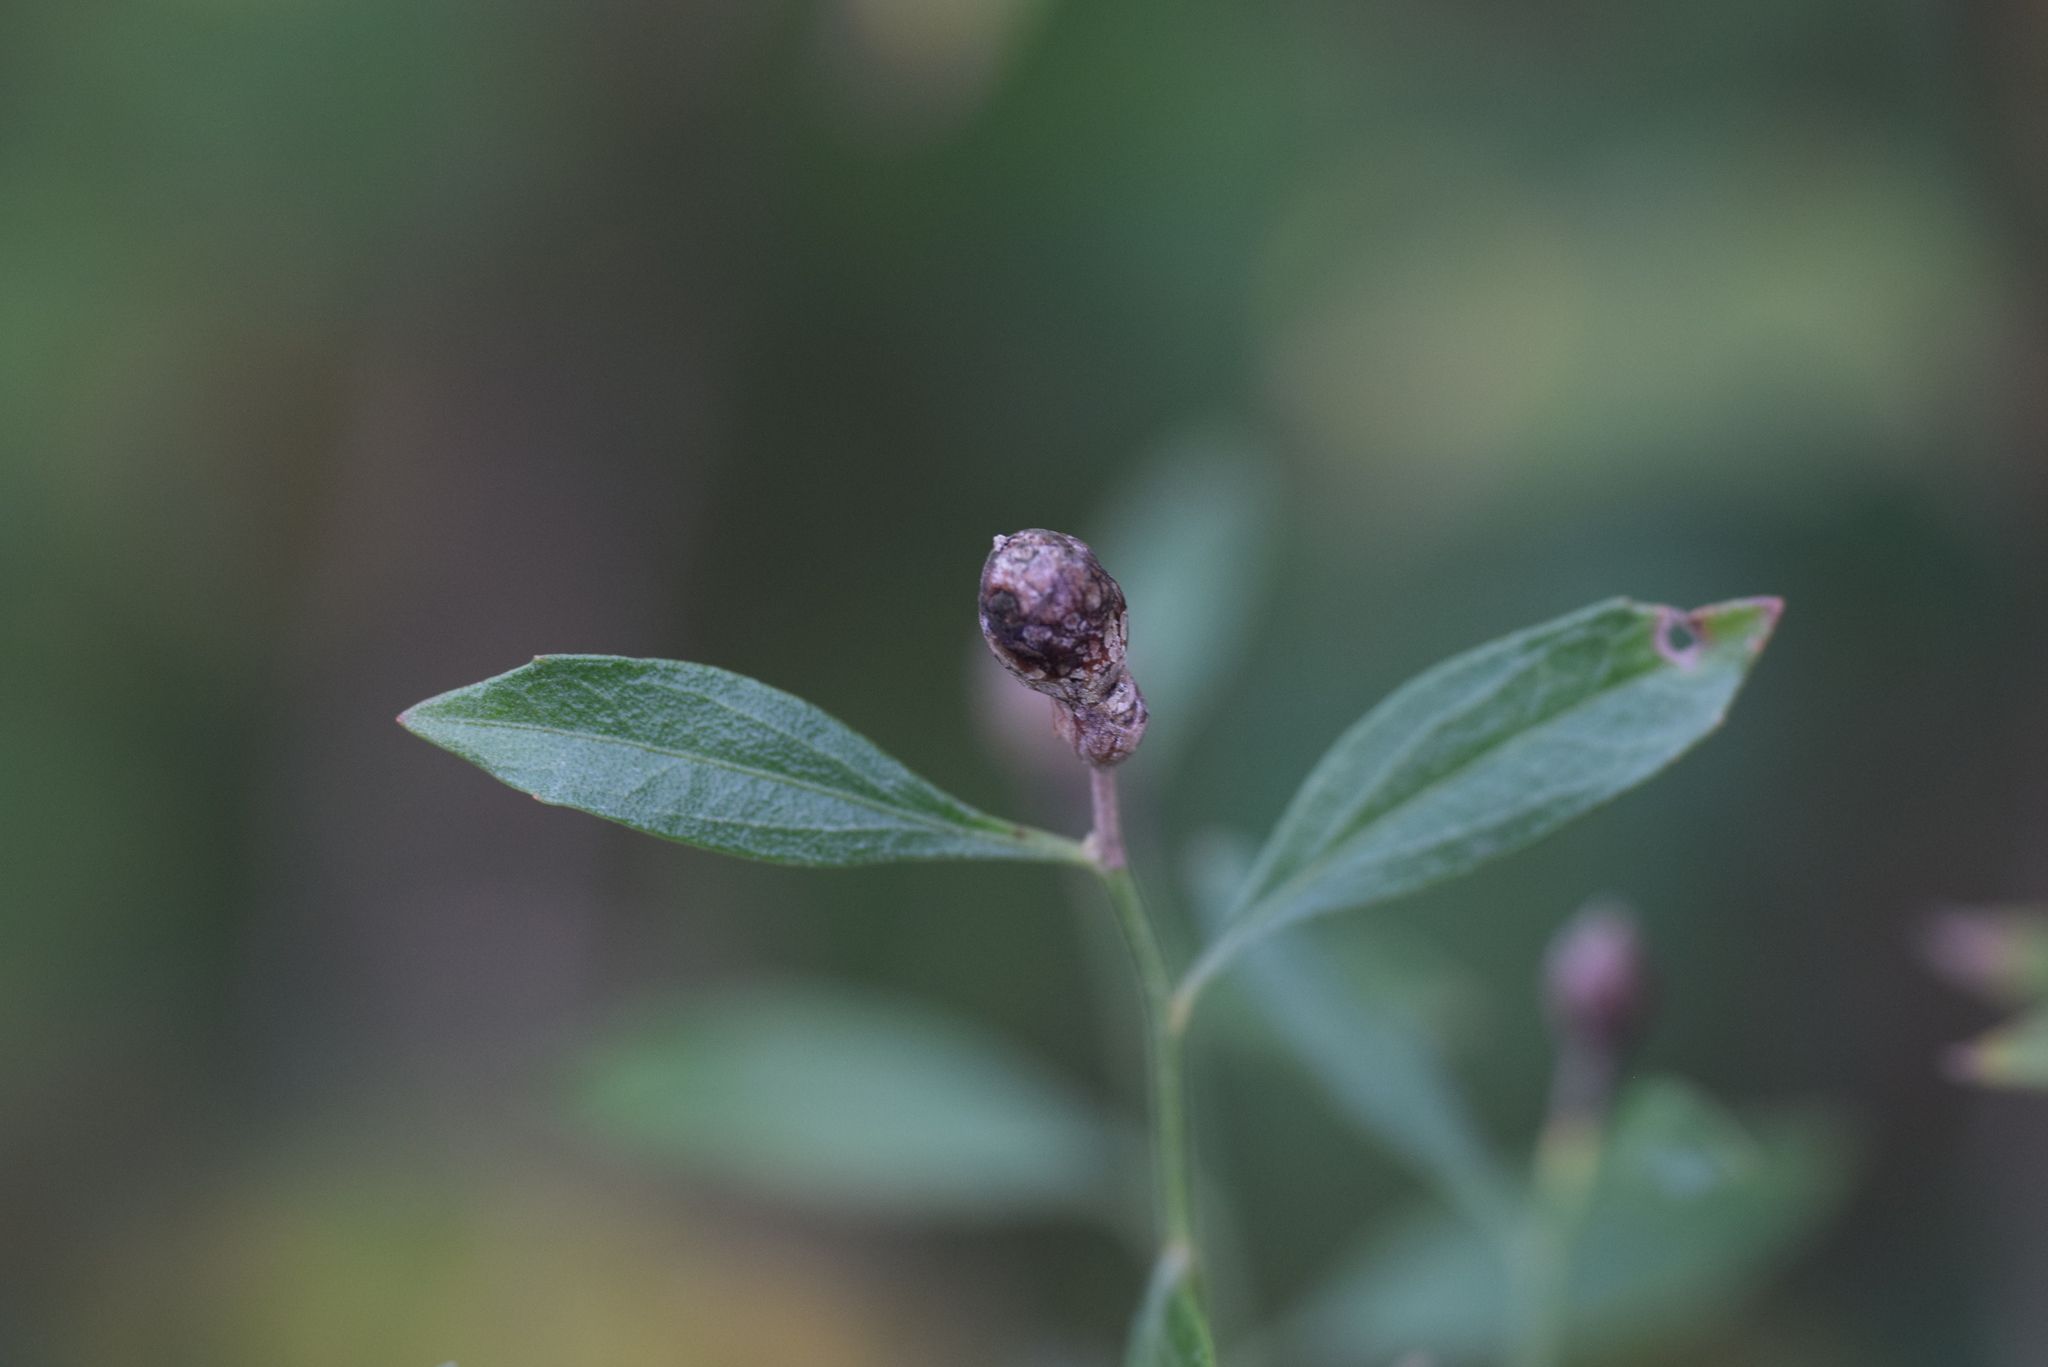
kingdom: Animalia
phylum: Arthropoda
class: Insecta
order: Diptera
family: Cecidomyiidae
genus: Neolasioptera
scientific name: Neolasioptera lathami
